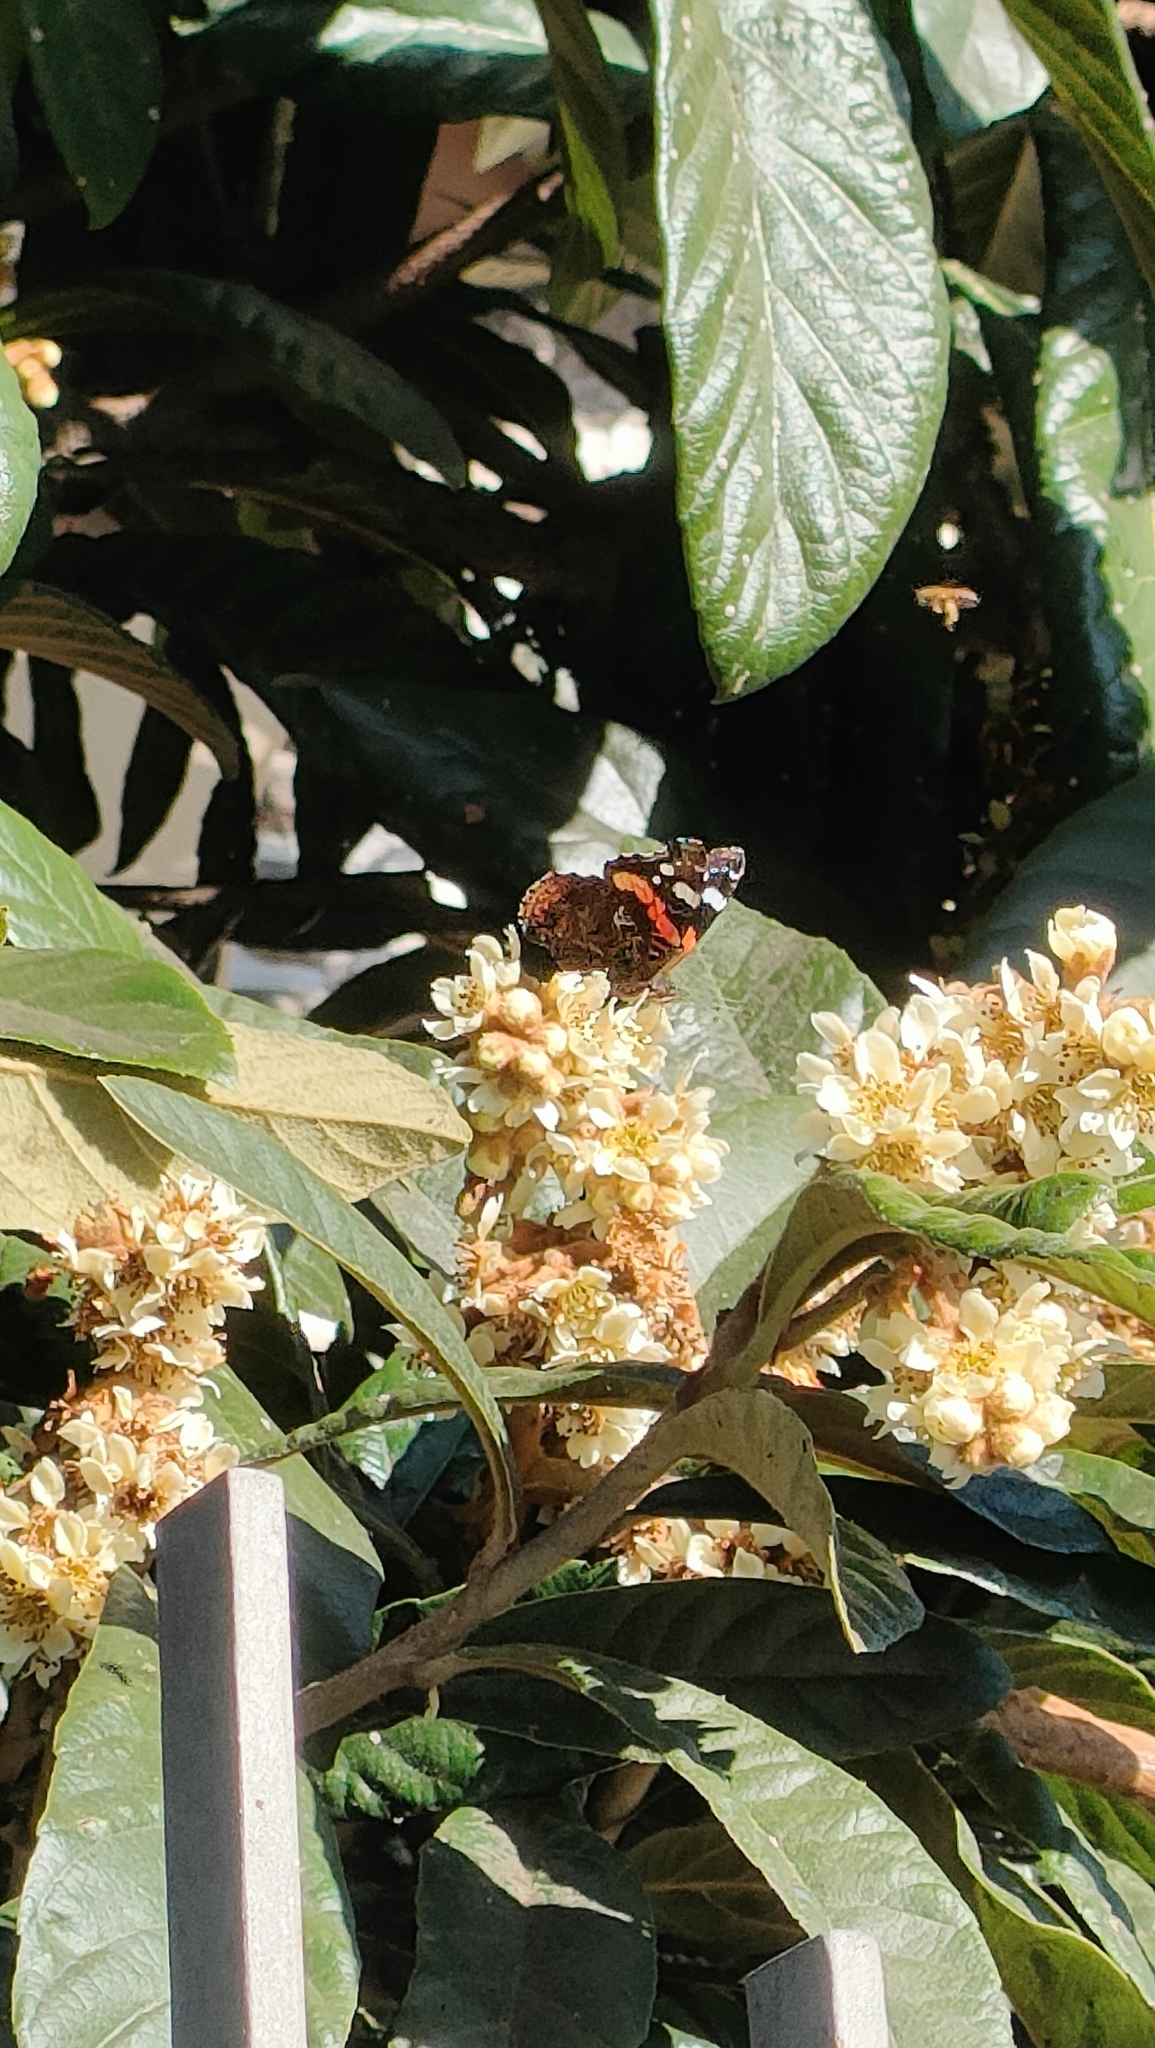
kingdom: Animalia
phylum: Arthropoda
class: Insecta
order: Lepidoptera
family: Nymphalidae
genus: Vanessa
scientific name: Vanessa atalanta
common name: Red admiral
